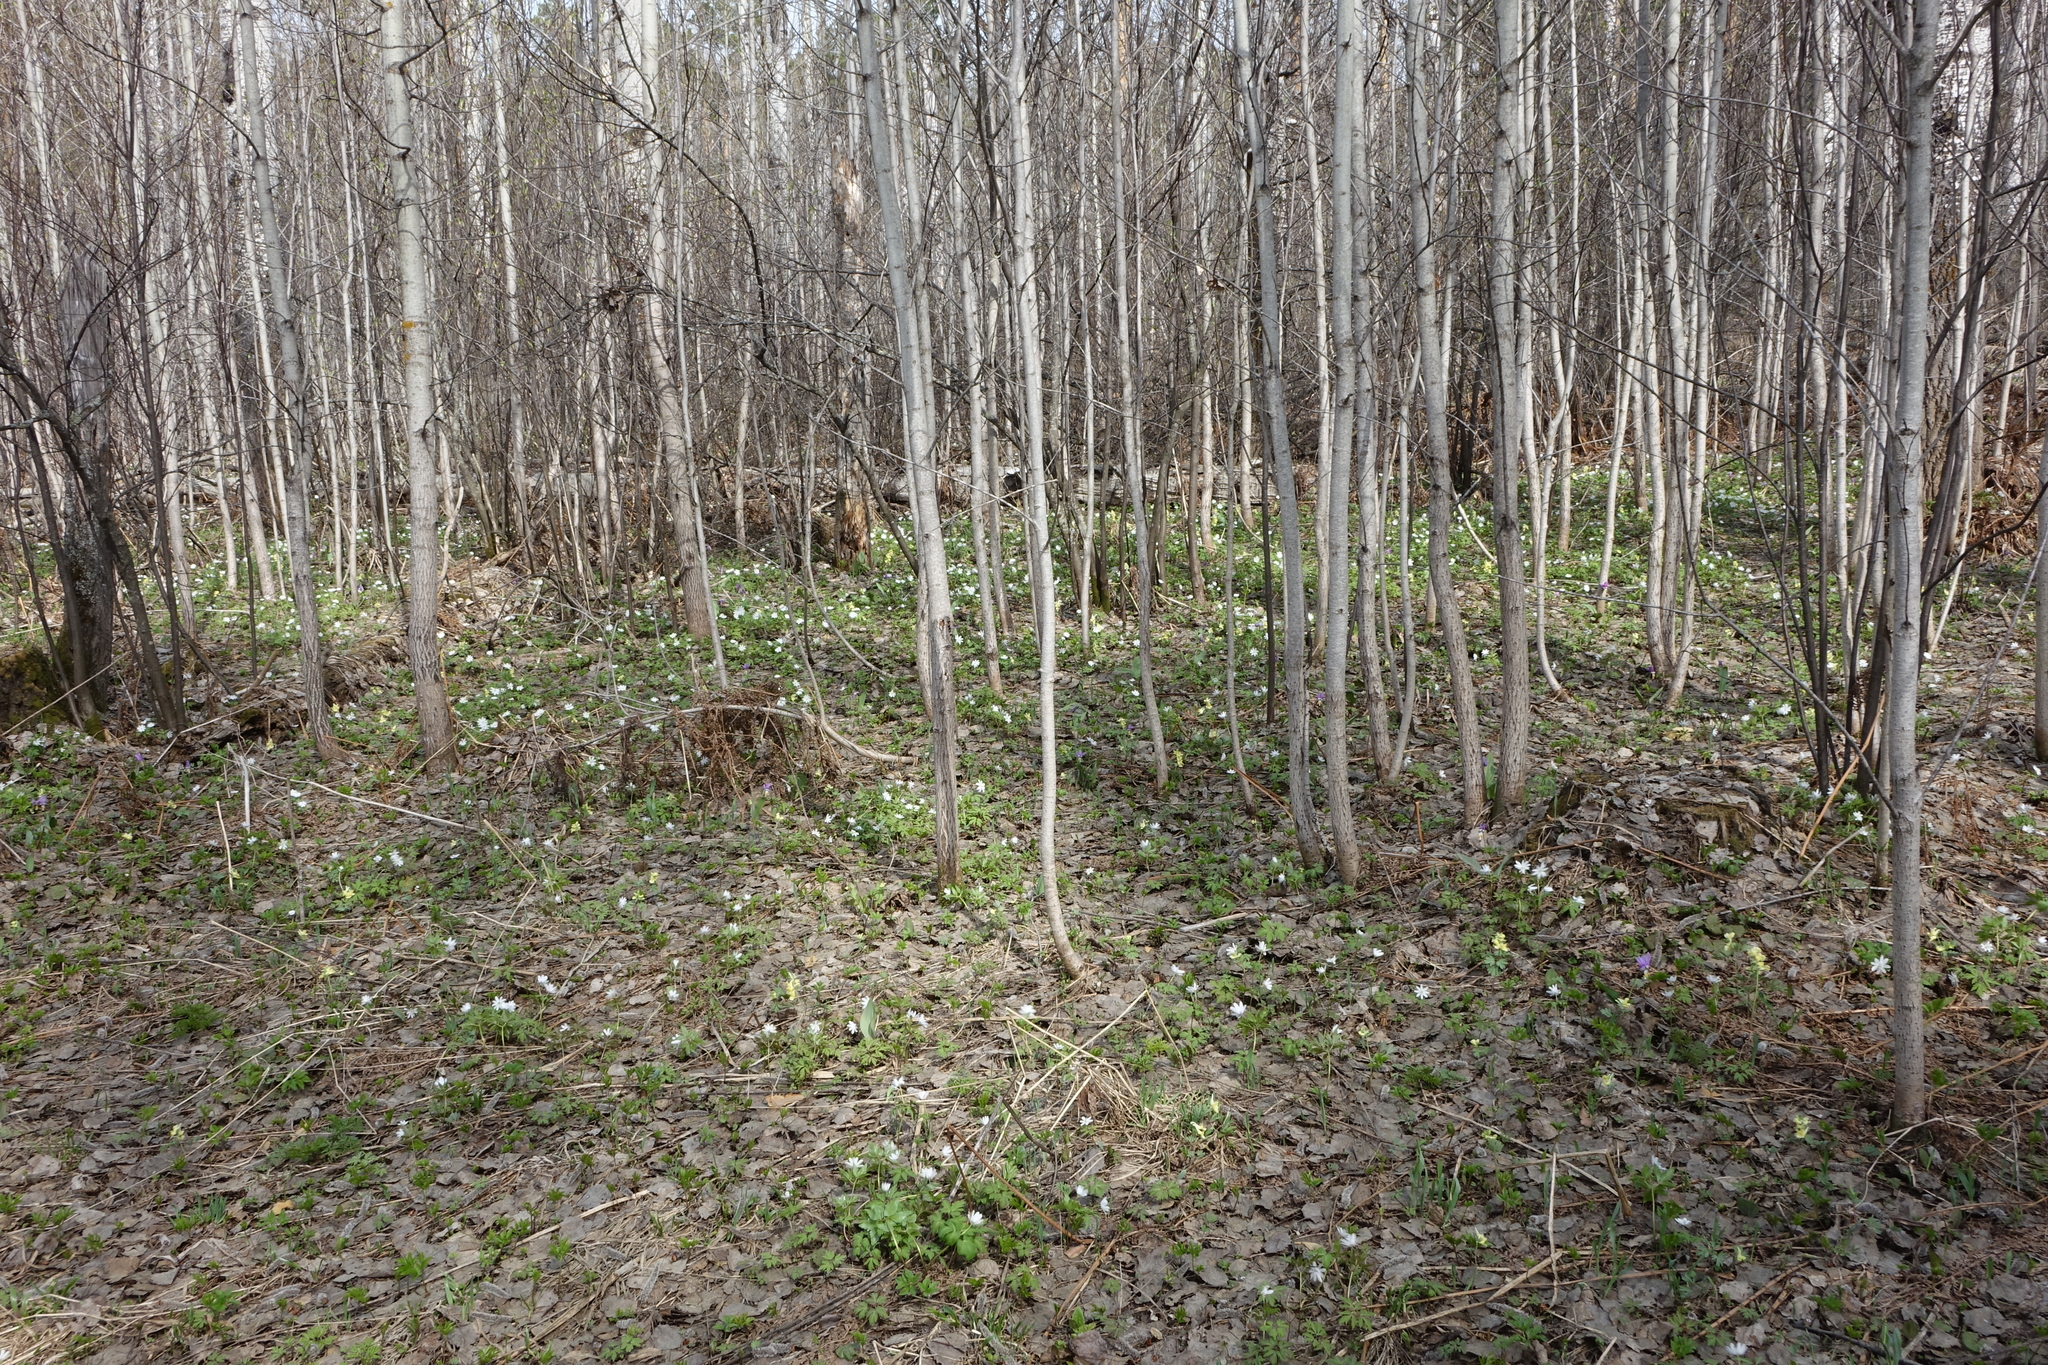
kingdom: Plantae
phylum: Tracheophyta
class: Magnoliopsida
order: Malpighiales
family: Salicaceae
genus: Populus
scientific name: Populus tremula
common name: European aspen
